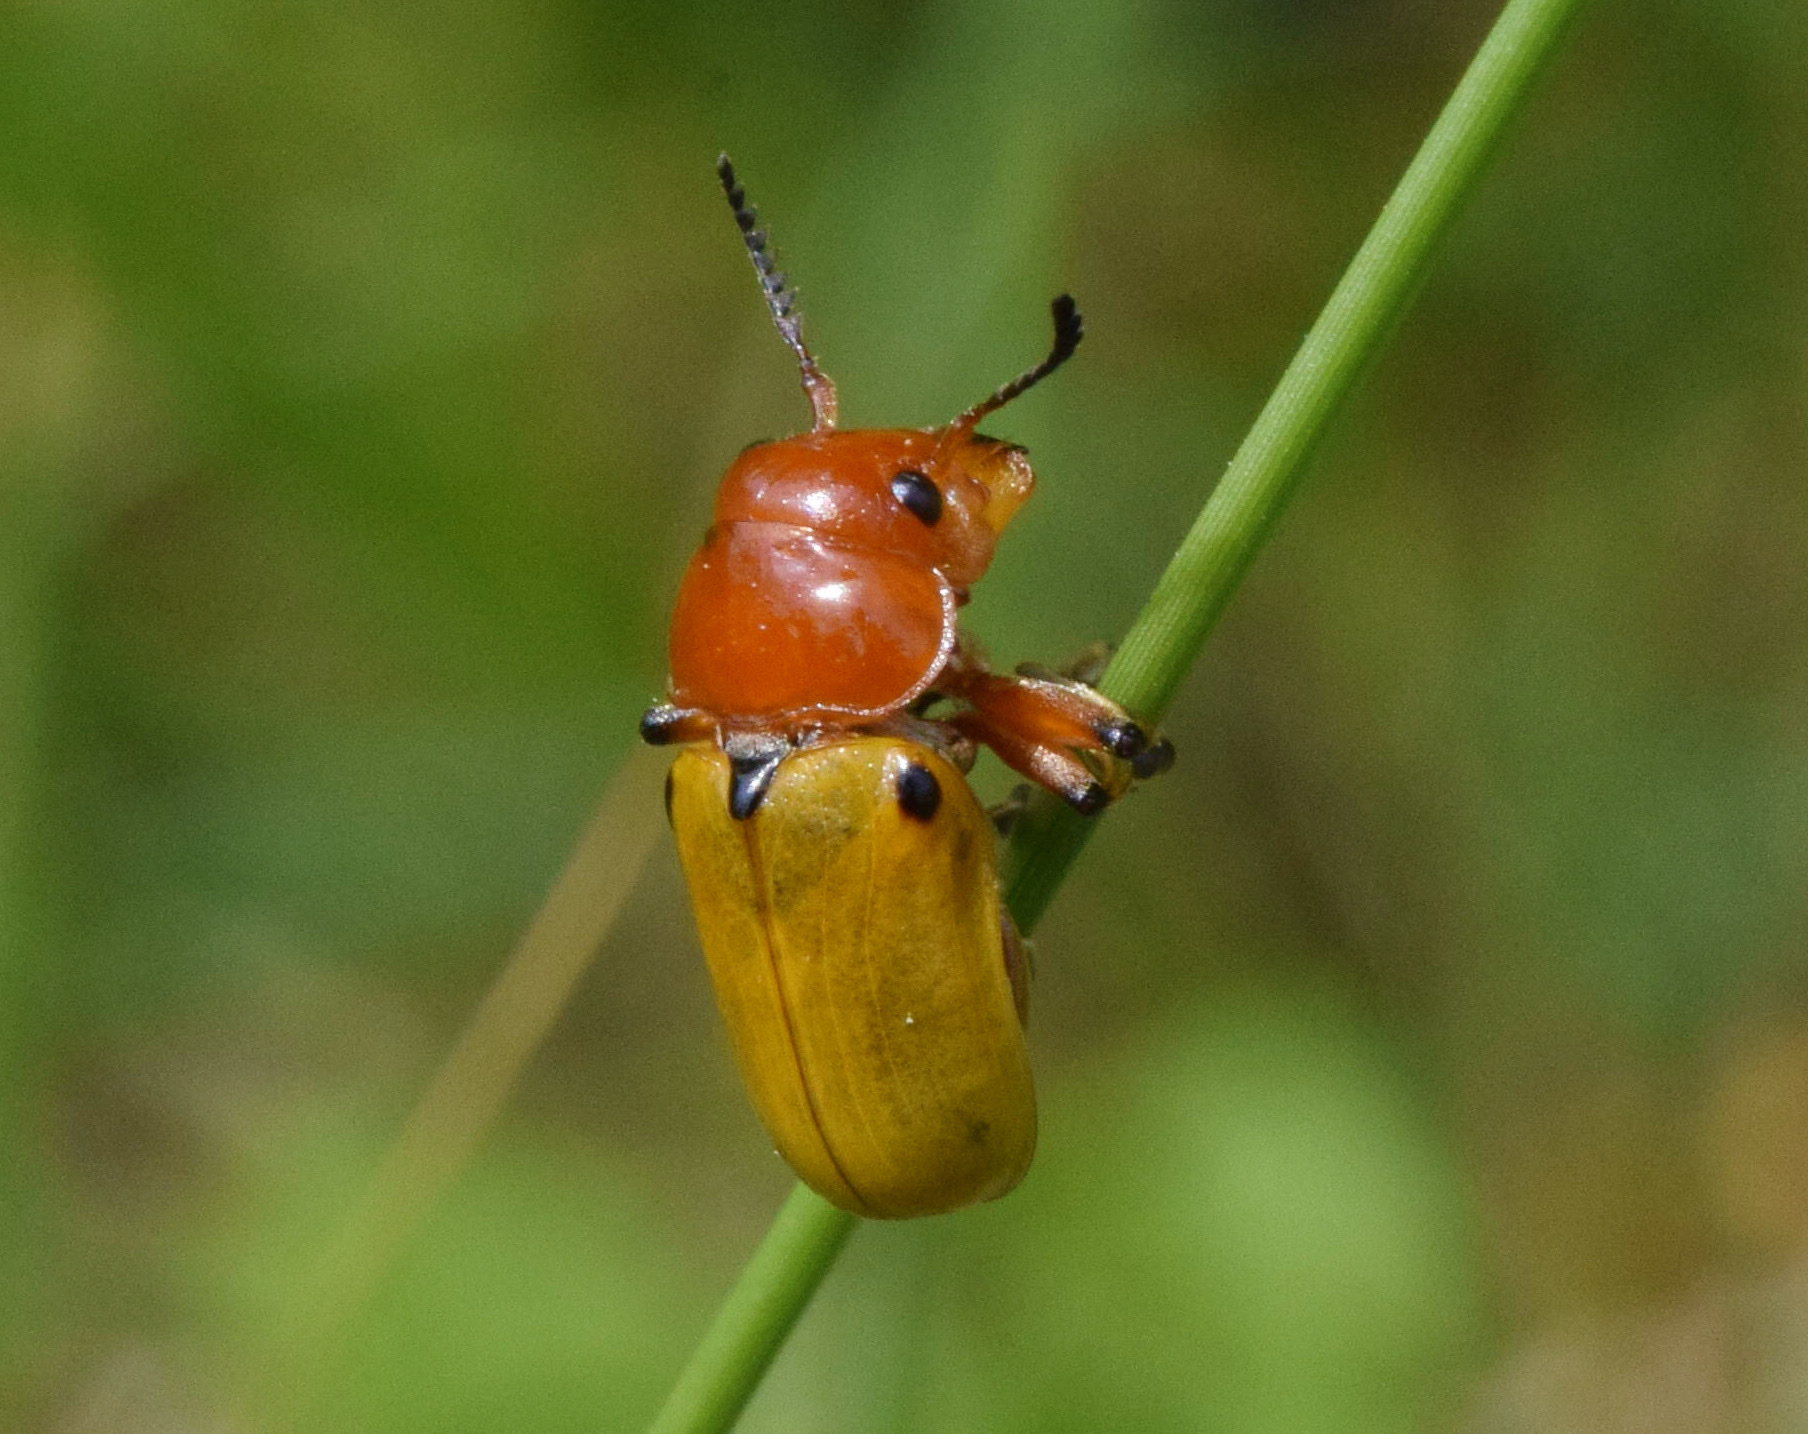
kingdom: Animalia
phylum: Arthropoda
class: Insecta
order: Coleoptera
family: Chrysomelidae
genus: Antipus
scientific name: Antipus rufus
